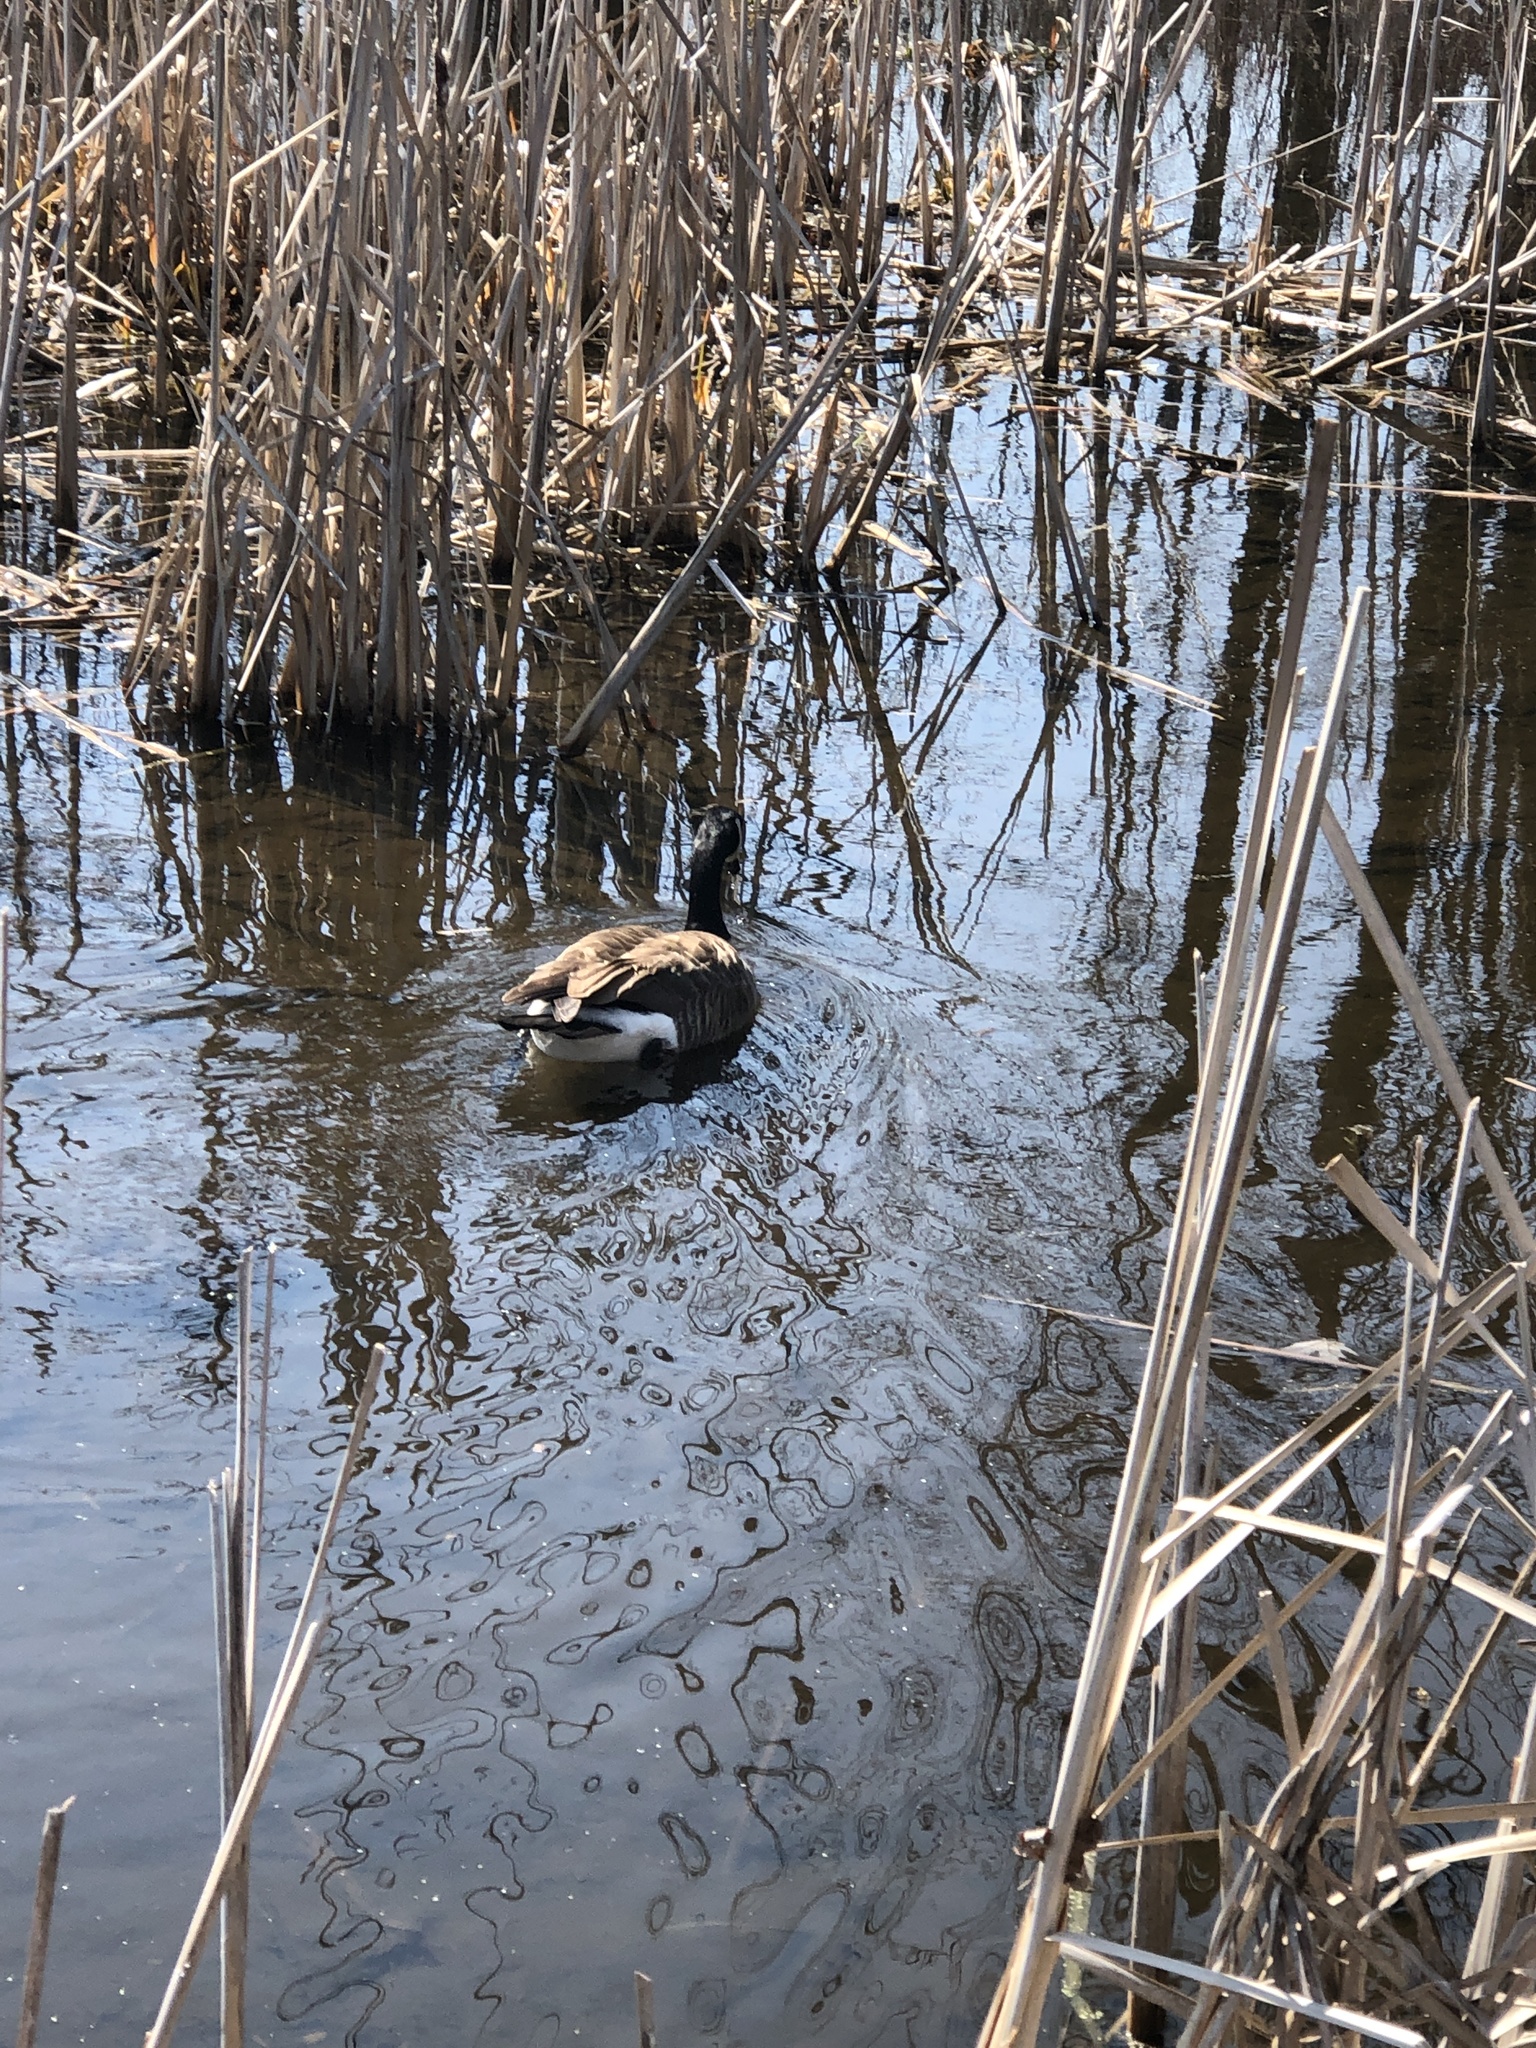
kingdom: Animalia
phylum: Chordata
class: Aves
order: Anseriformes
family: Anatidae
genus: Branta
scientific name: Branta canadensis
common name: Canada goose
